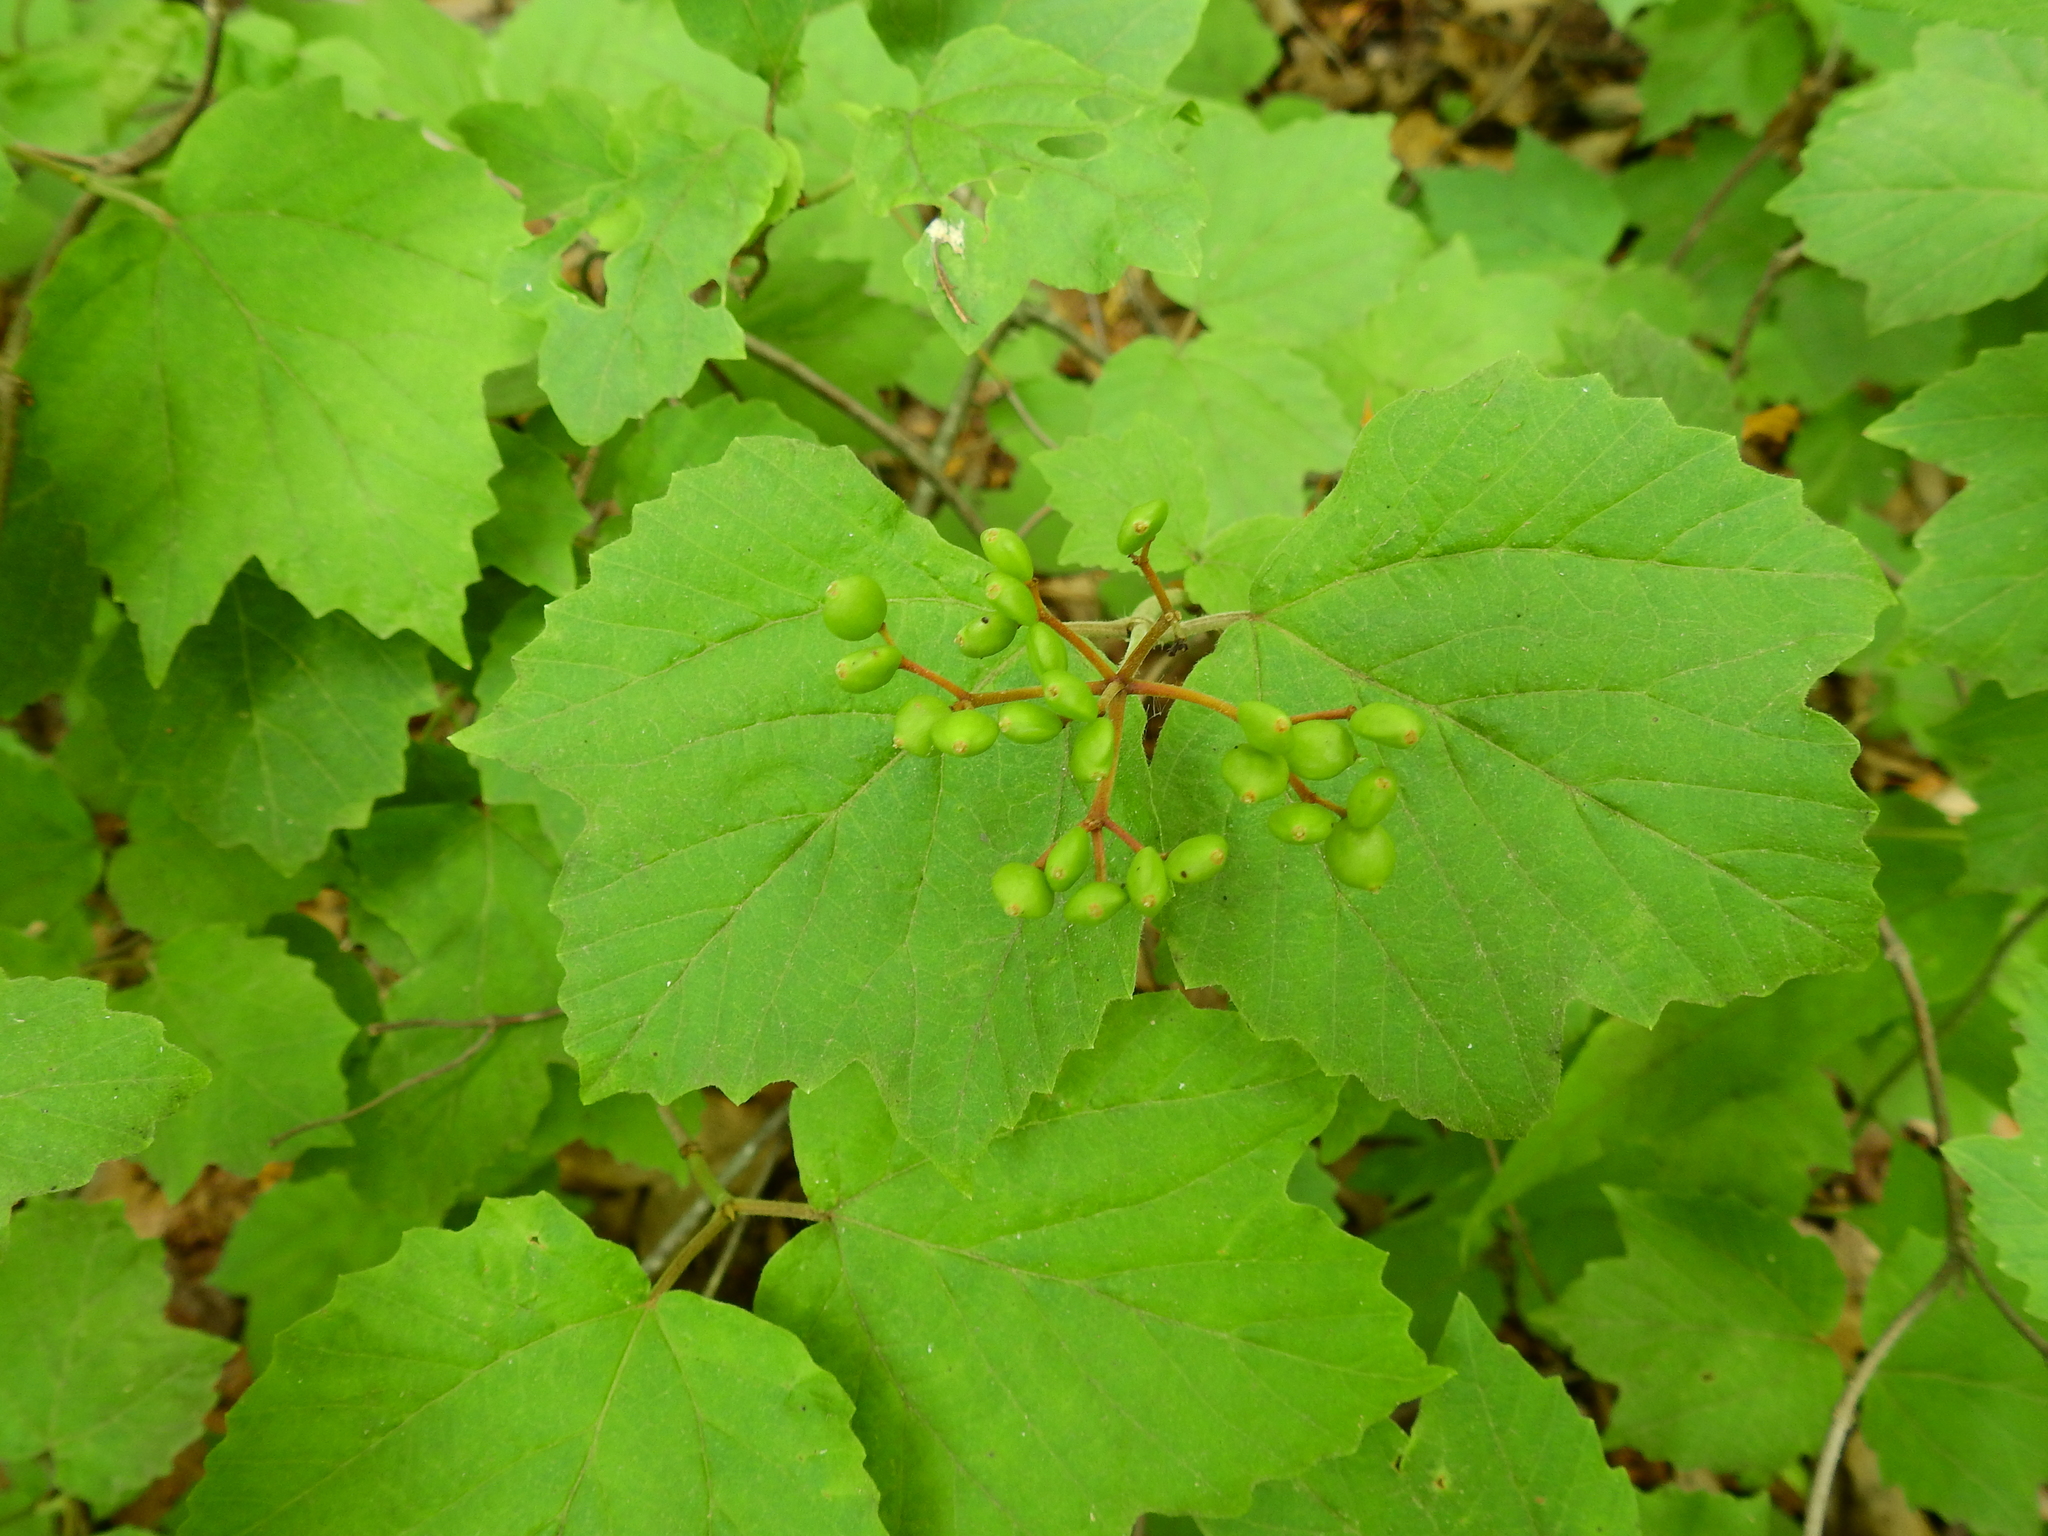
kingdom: Plantae
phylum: Tracheophyta
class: Magnoliopsida
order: Dipsacales
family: Viburnaceae
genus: Viburnum
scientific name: Viburnum acerifolium
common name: Dockmackie
